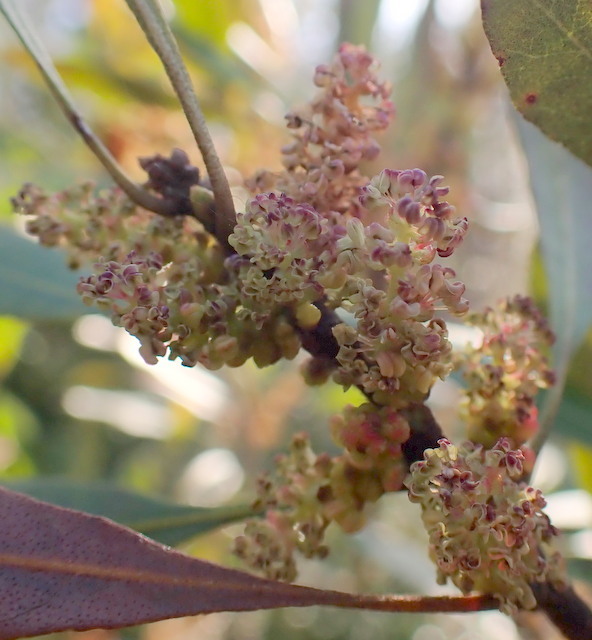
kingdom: Plantae
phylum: Tracheophyta
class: Magnoliopsida
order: Fagales
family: Myricaceae
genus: Morella
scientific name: Morella cerifera
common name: Wax myrtle
